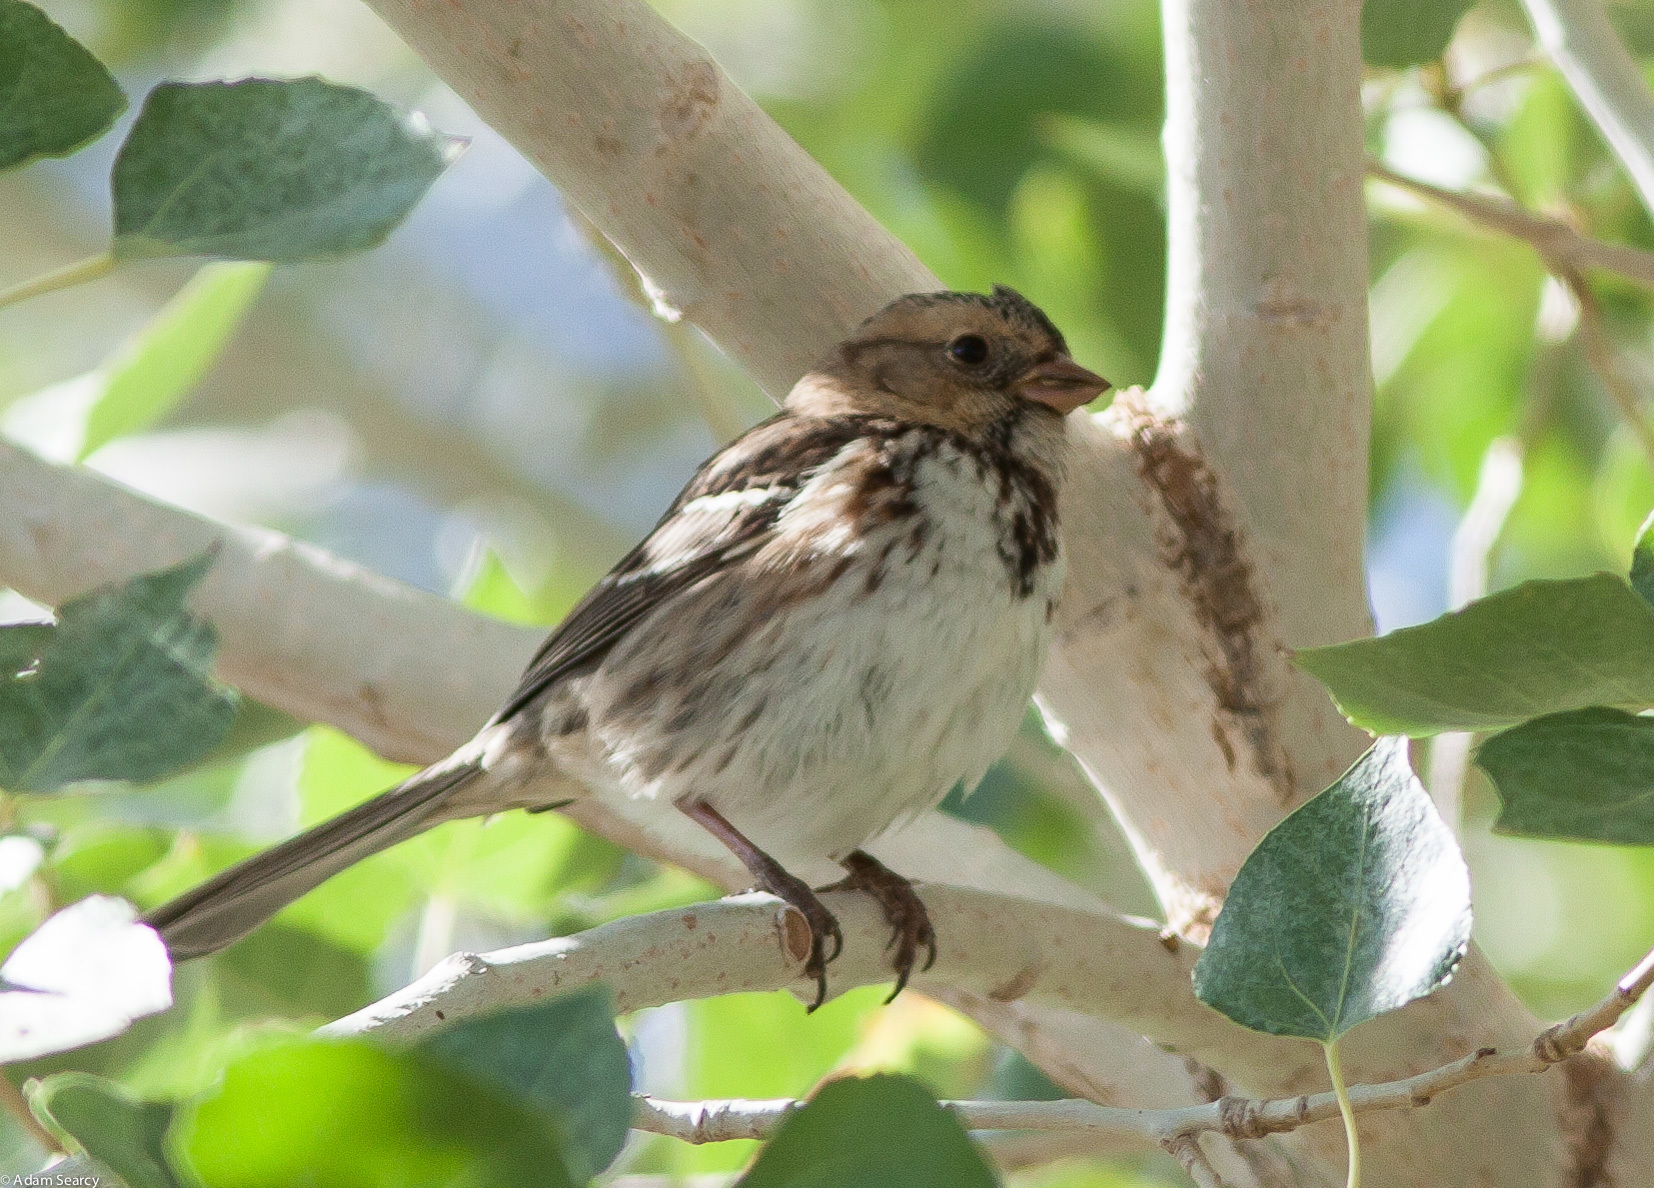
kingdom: Animalia
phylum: Chordata
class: Aves
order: Passeriformes
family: Passerellidae
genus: Zonotrichia
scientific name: Zonotrichia querula
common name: Harris's sparrow
